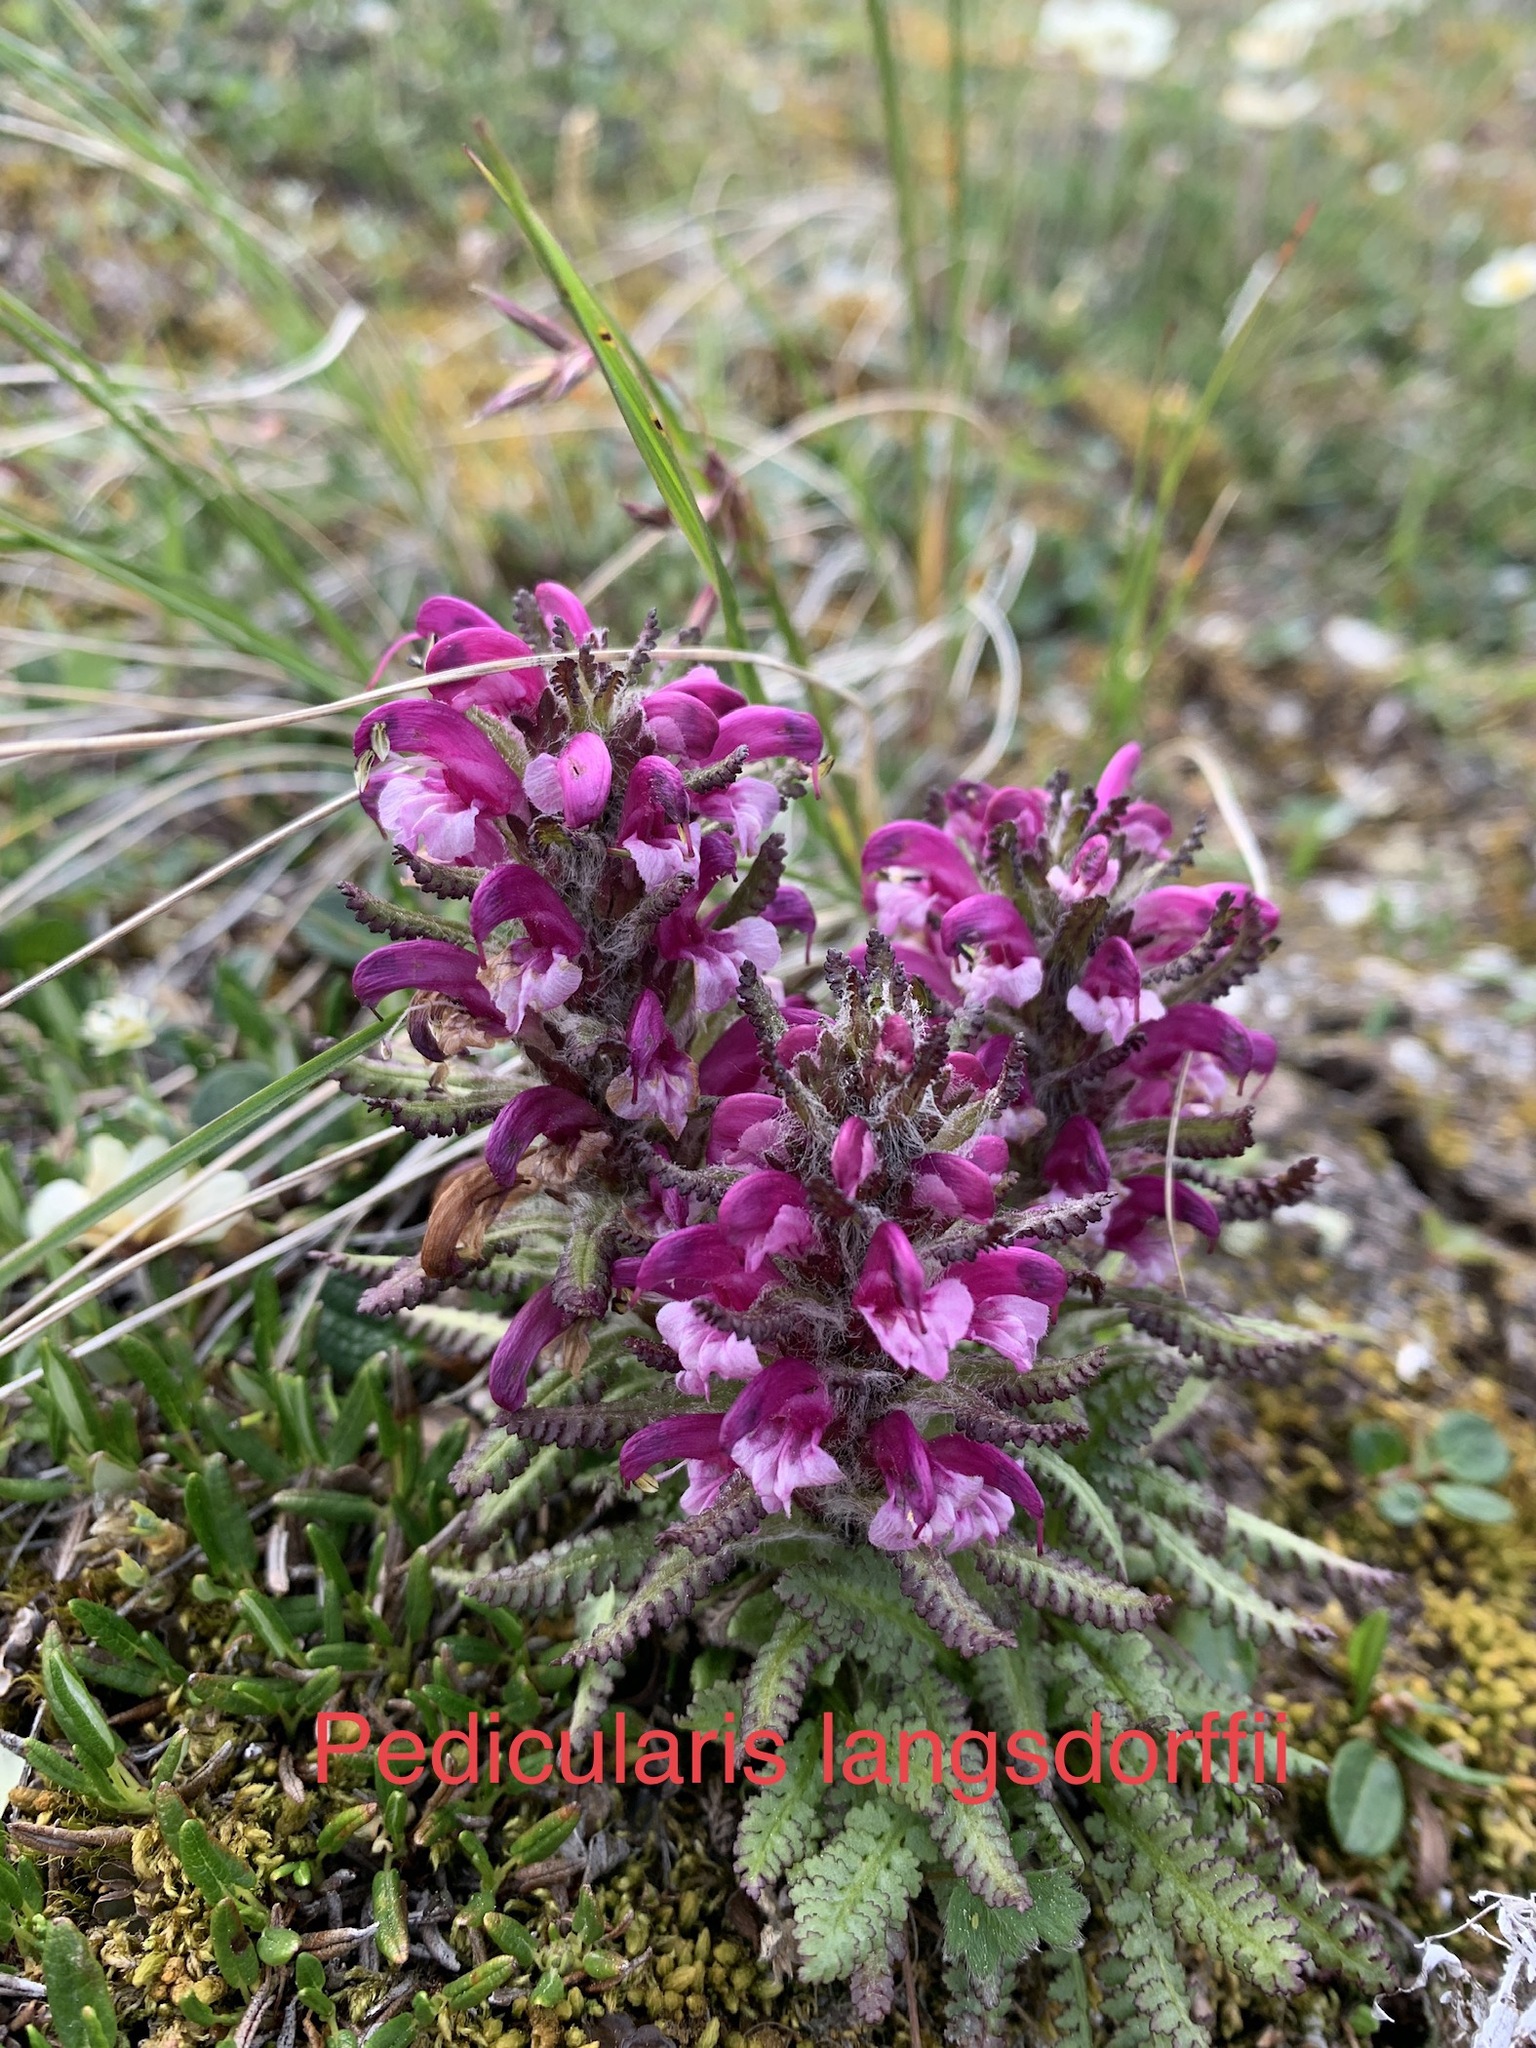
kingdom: Plantae
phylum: Tracheophyta
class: Magnoliopsida
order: Lamiales
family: Orobanchaceae
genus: Pedicularis
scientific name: Pedicularis langsdorffii
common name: Langsdorff's lousewort
